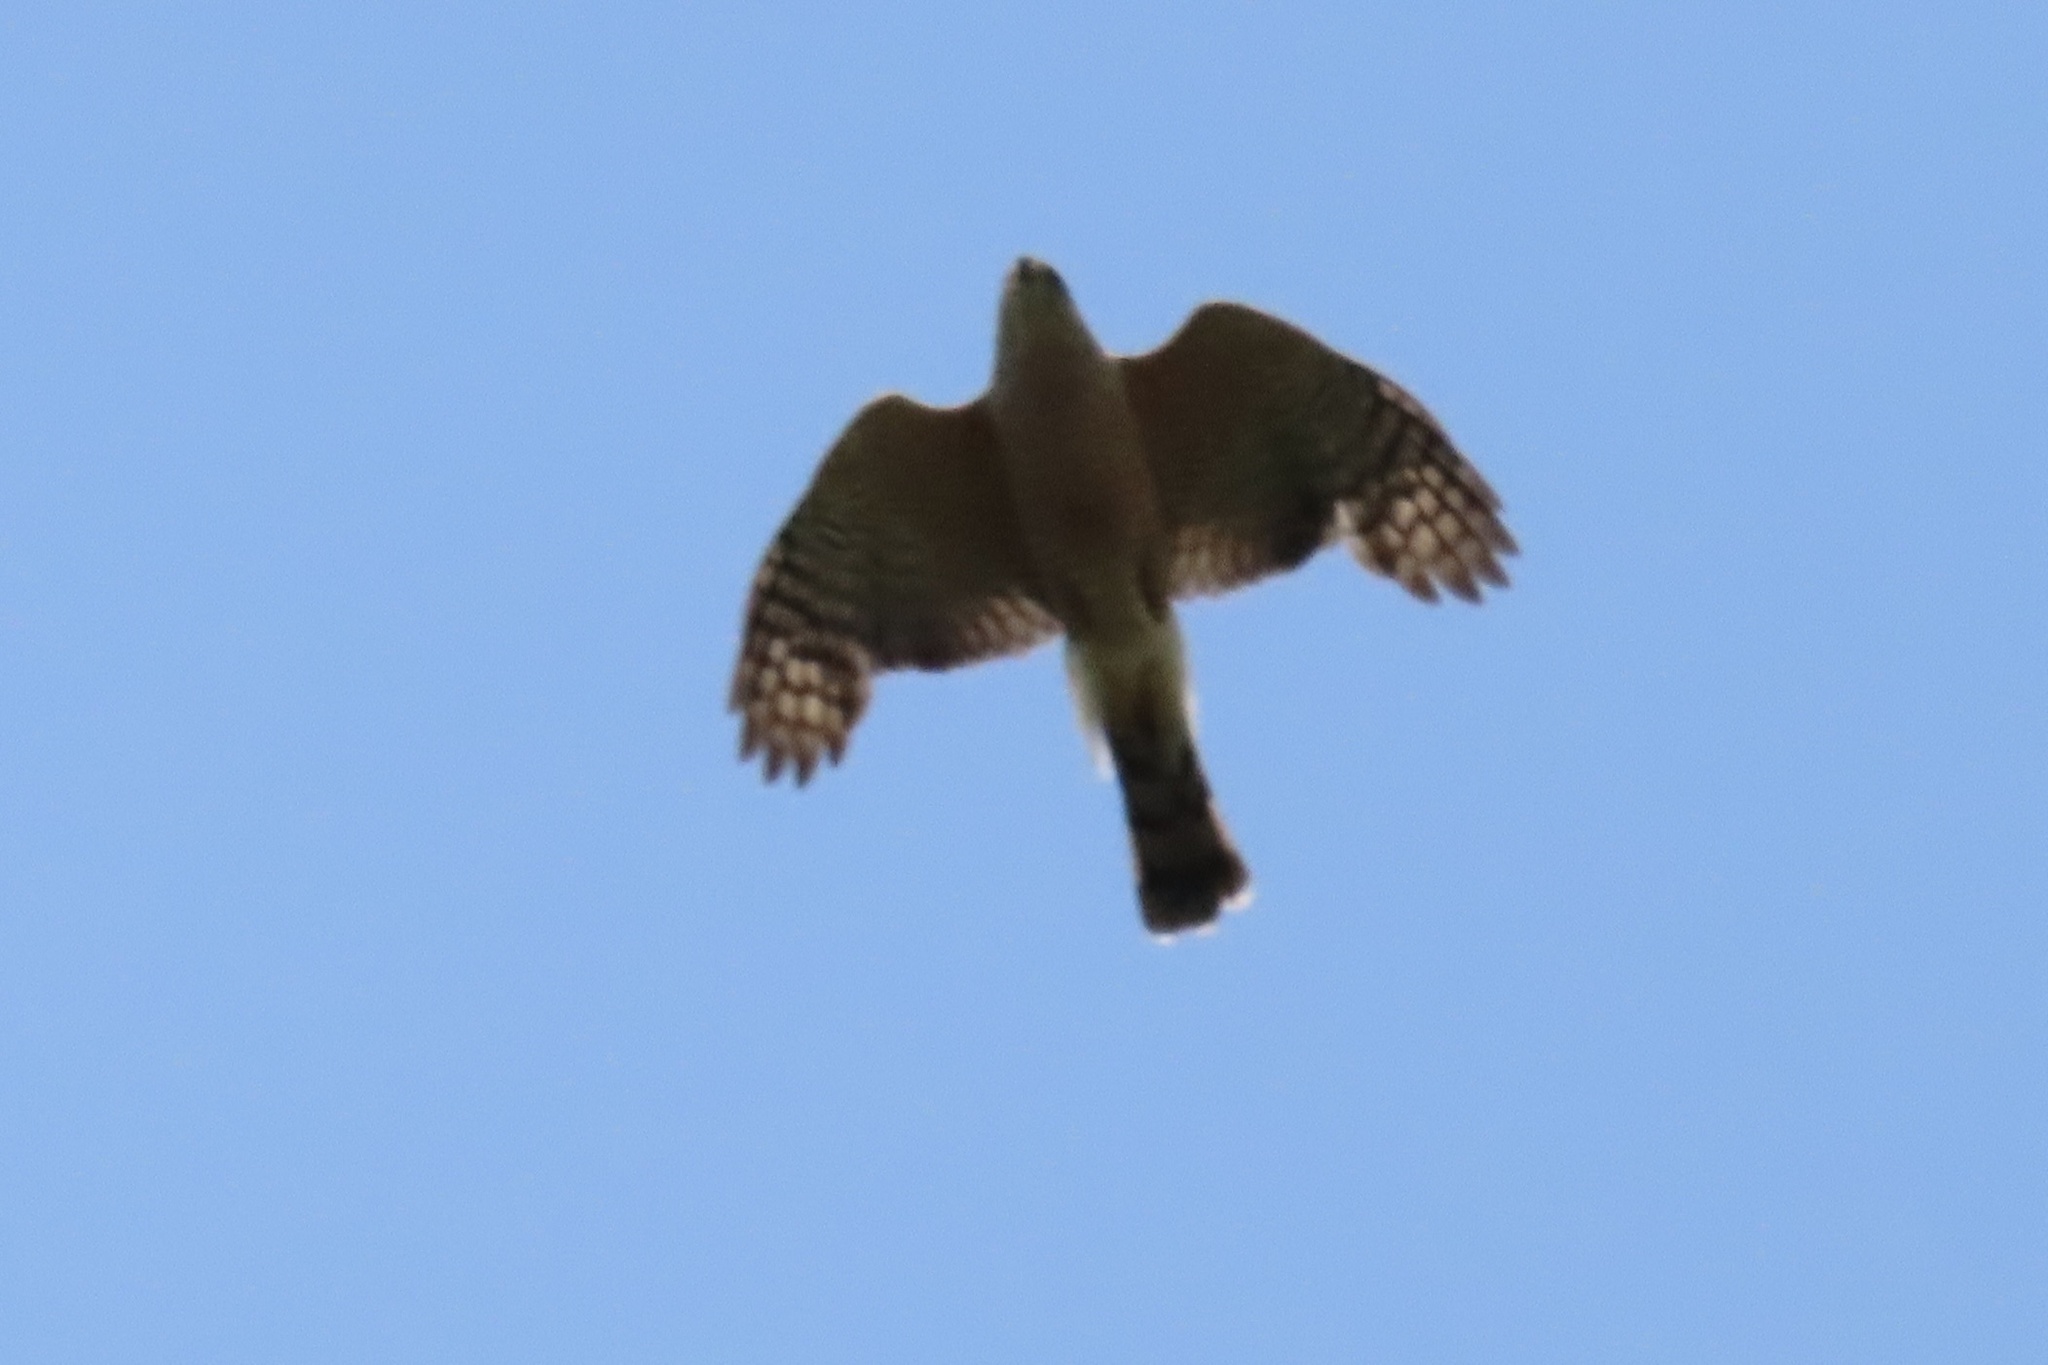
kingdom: Animalia
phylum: Chordata
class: Aves
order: Accipitriformes
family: Accipitridae
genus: Accipiter
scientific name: Accipiter cooperii
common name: Cooper's hawk
